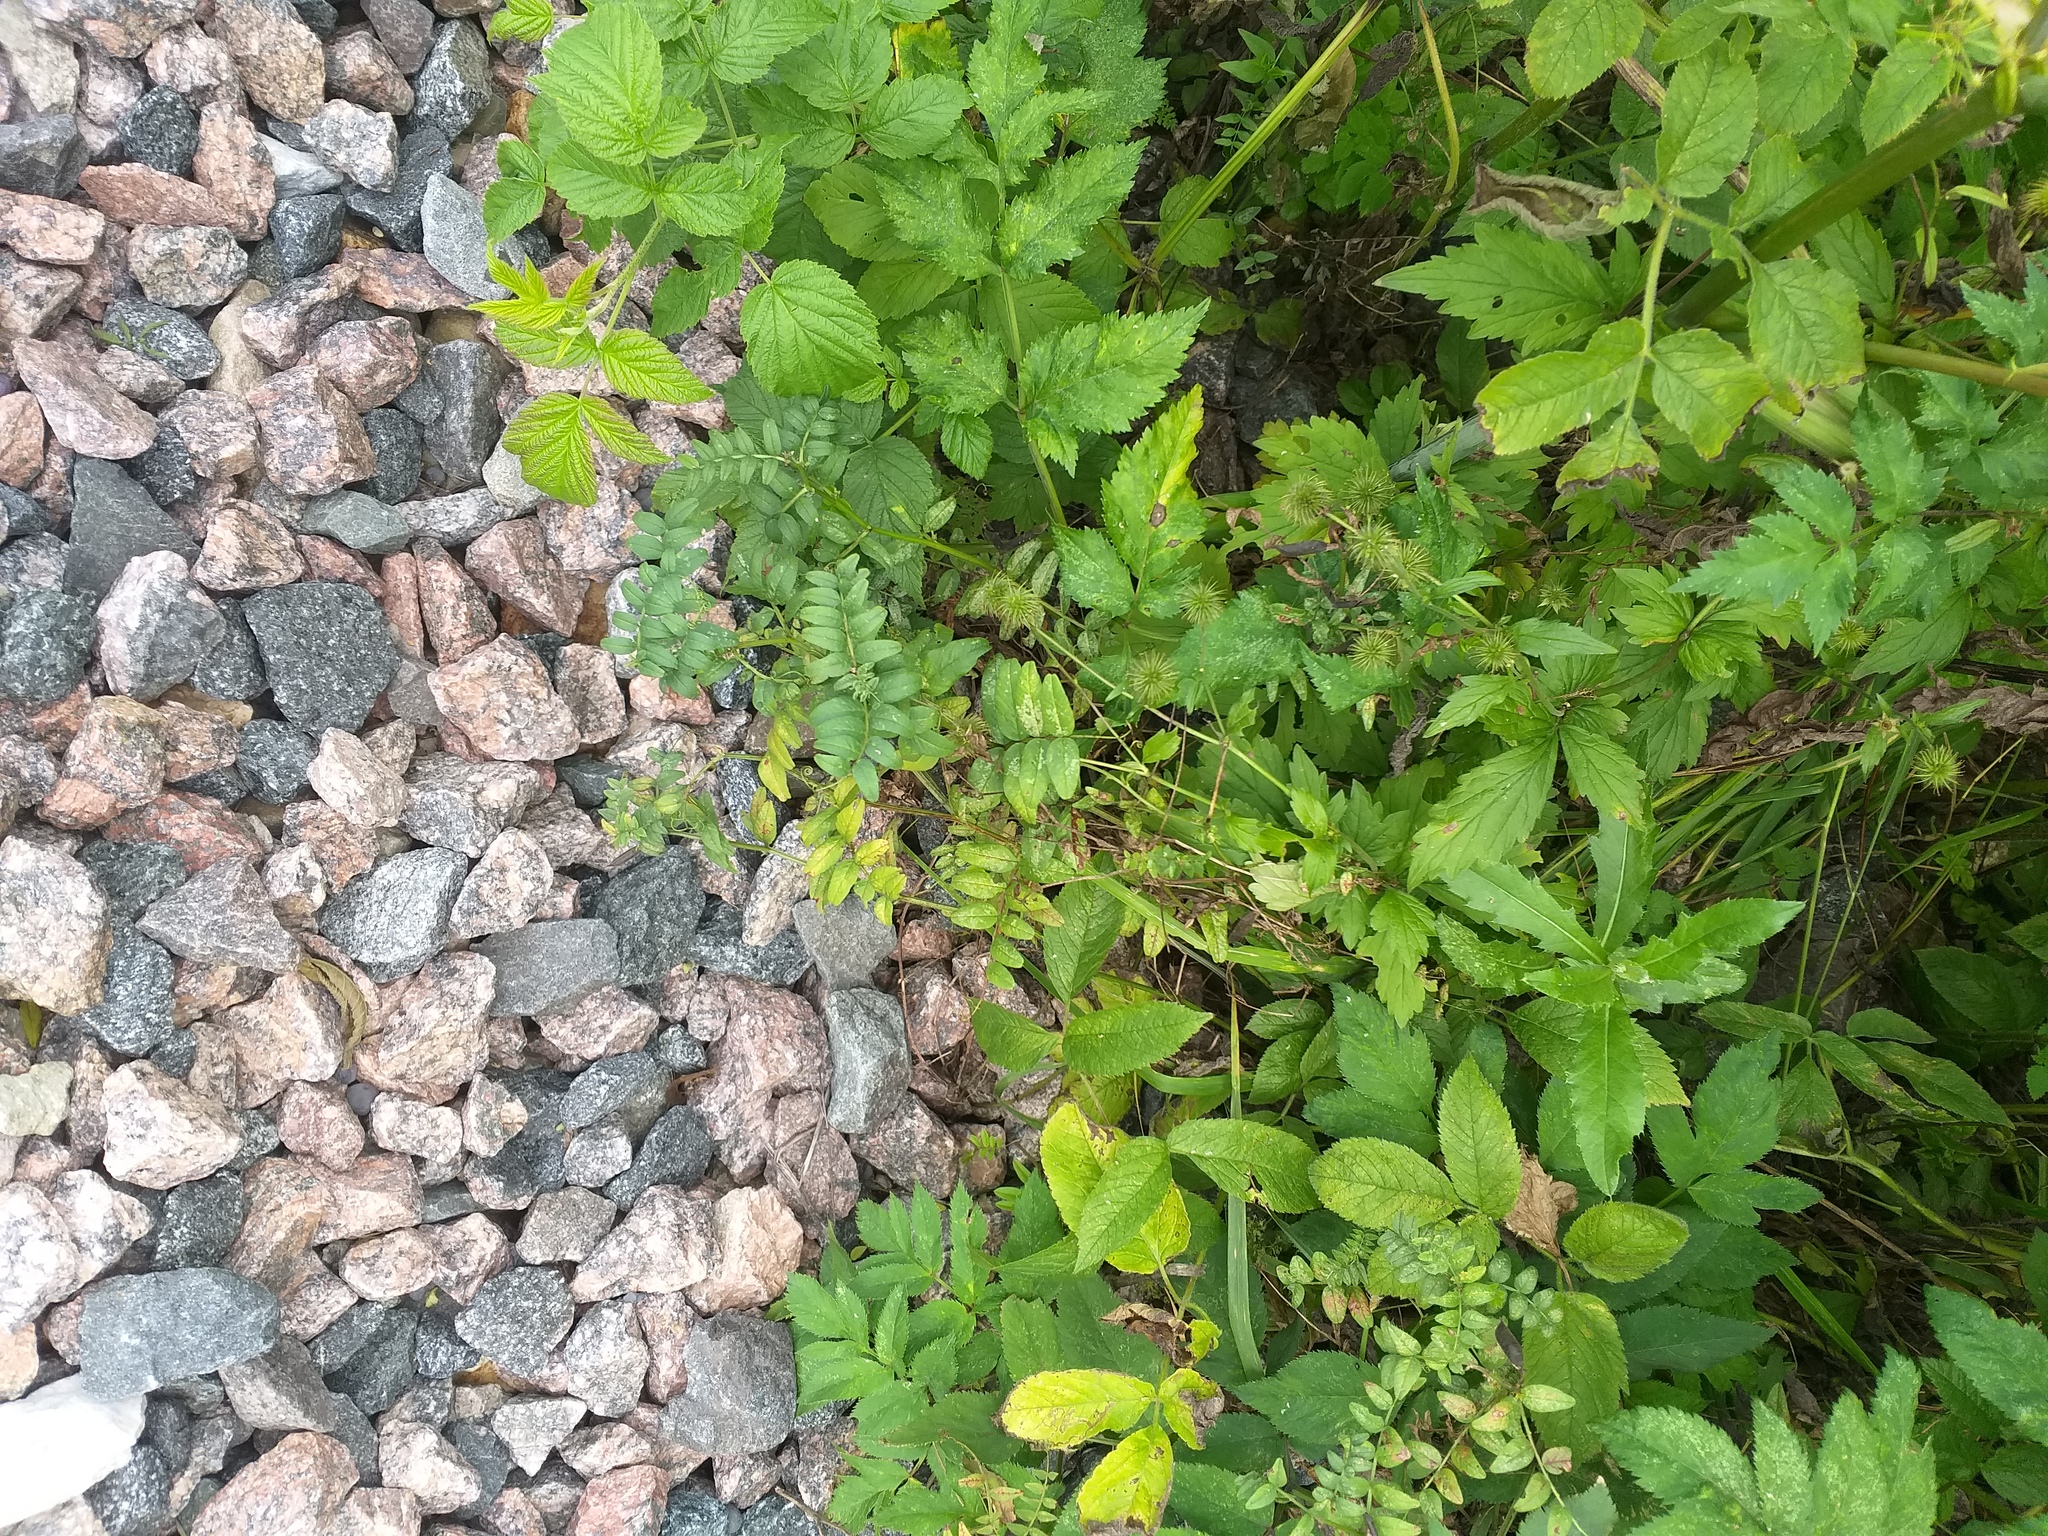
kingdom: Plantae
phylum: Tracheophyta
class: Magnoliopsida
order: Fabales
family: Fabaceae
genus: Vicia
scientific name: Vicia sepium
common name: Bush vetch
